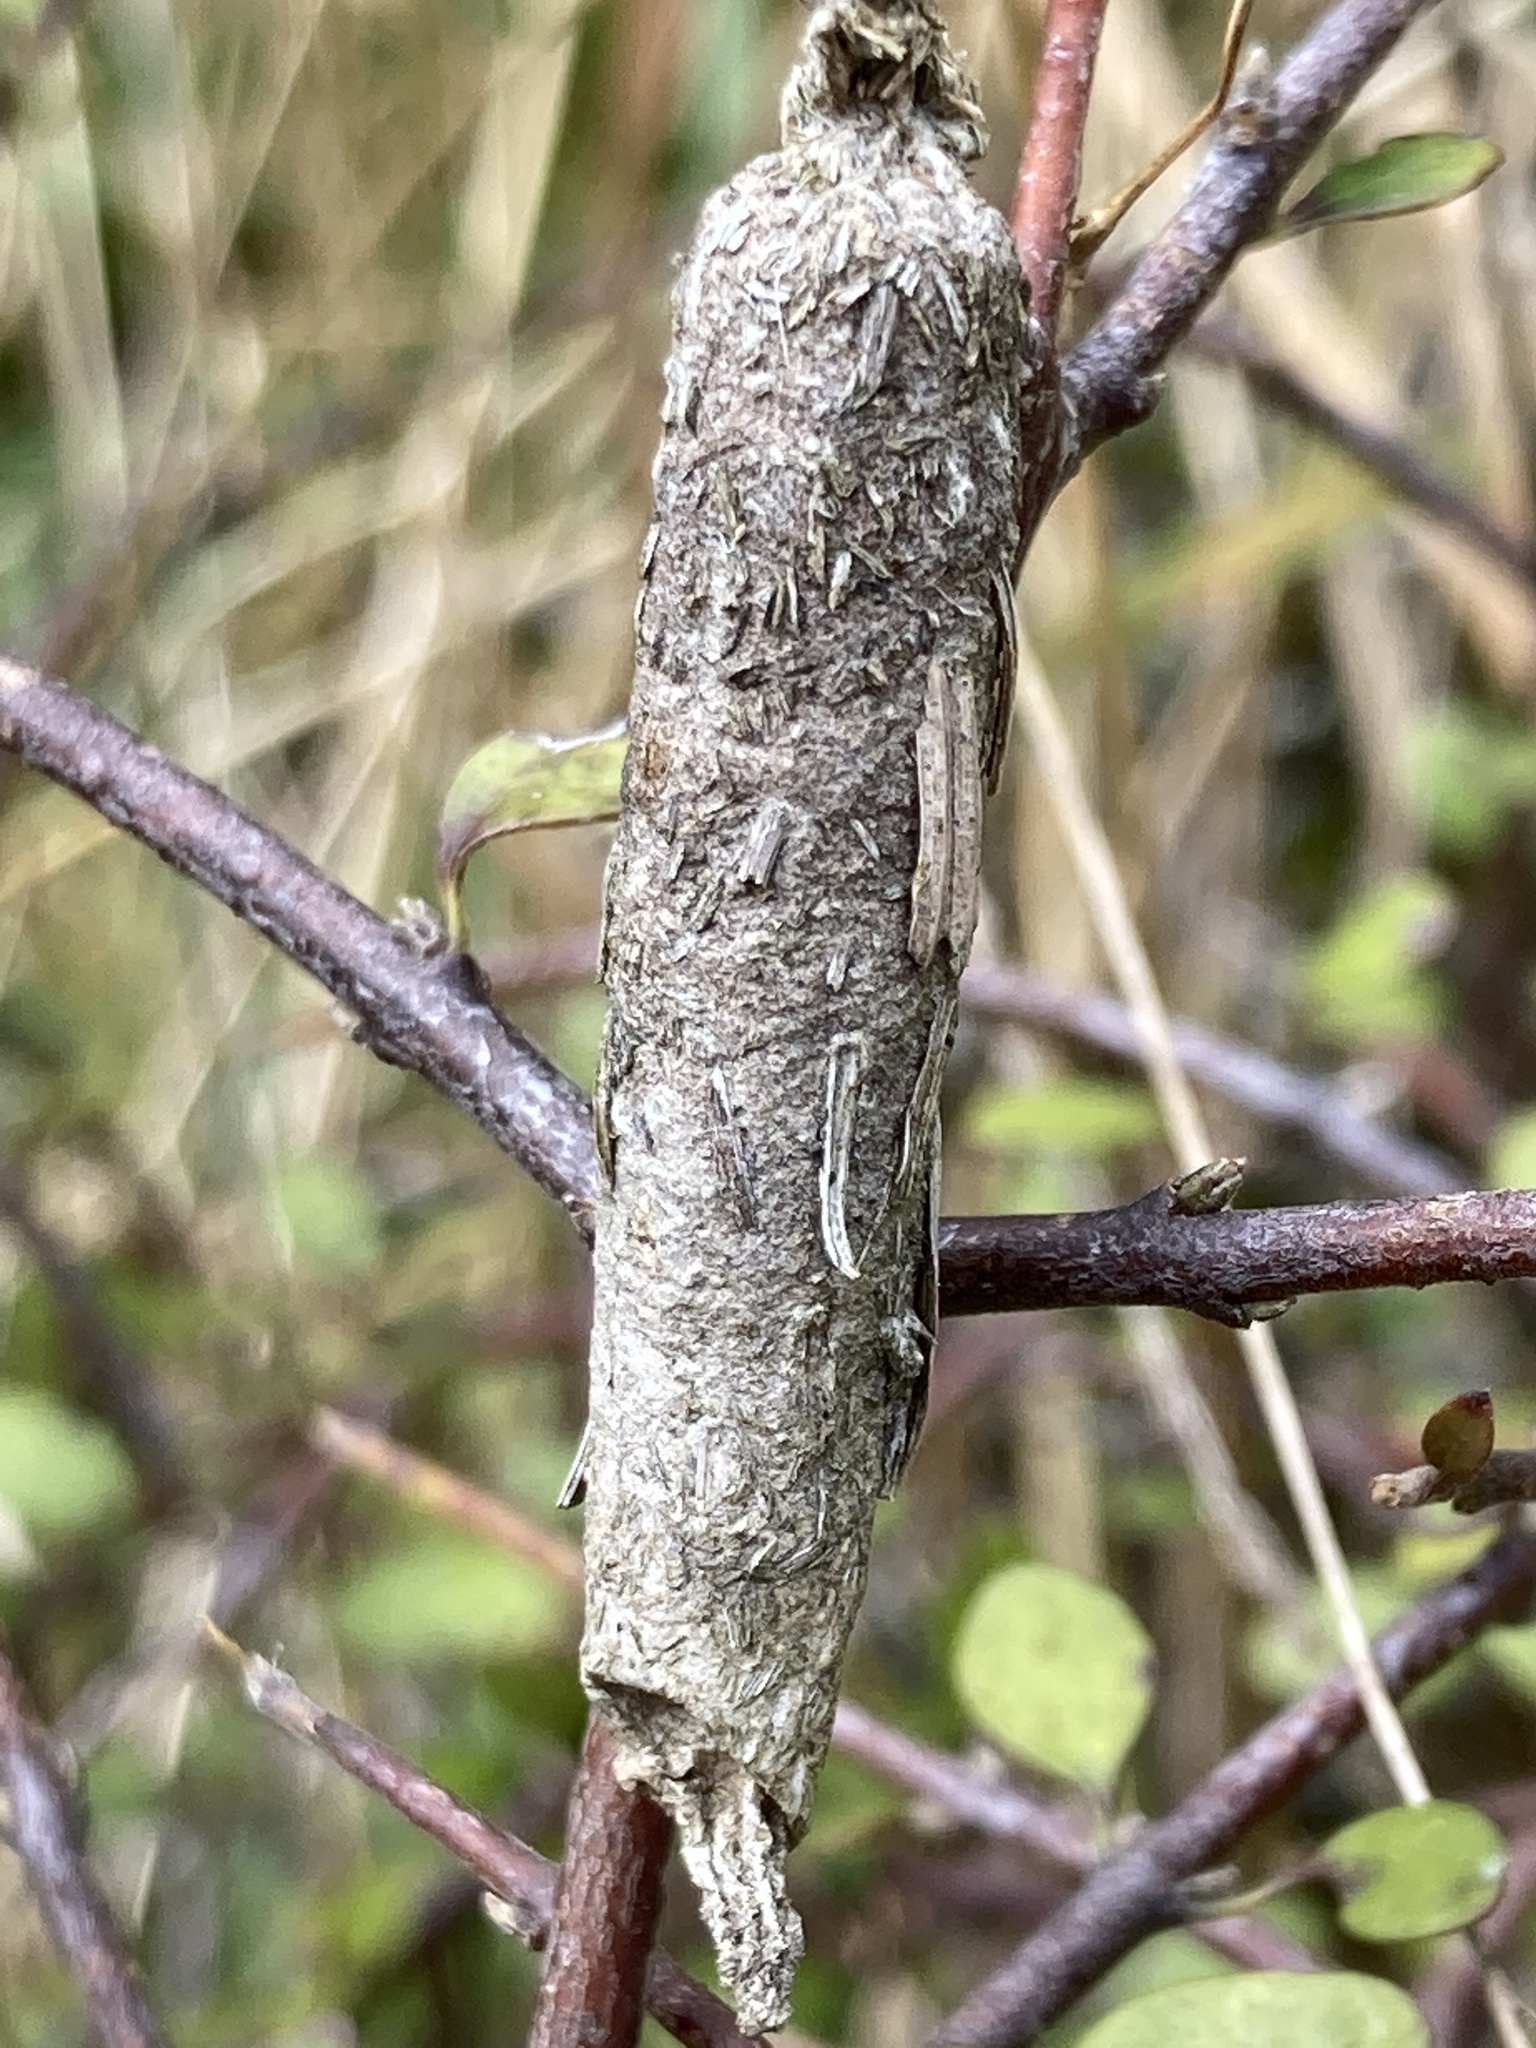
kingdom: Animalia
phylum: Arthropoda
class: Insecta
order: Lepidoptera
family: Psychidae
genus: Liothula
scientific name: Liothula omnivora
